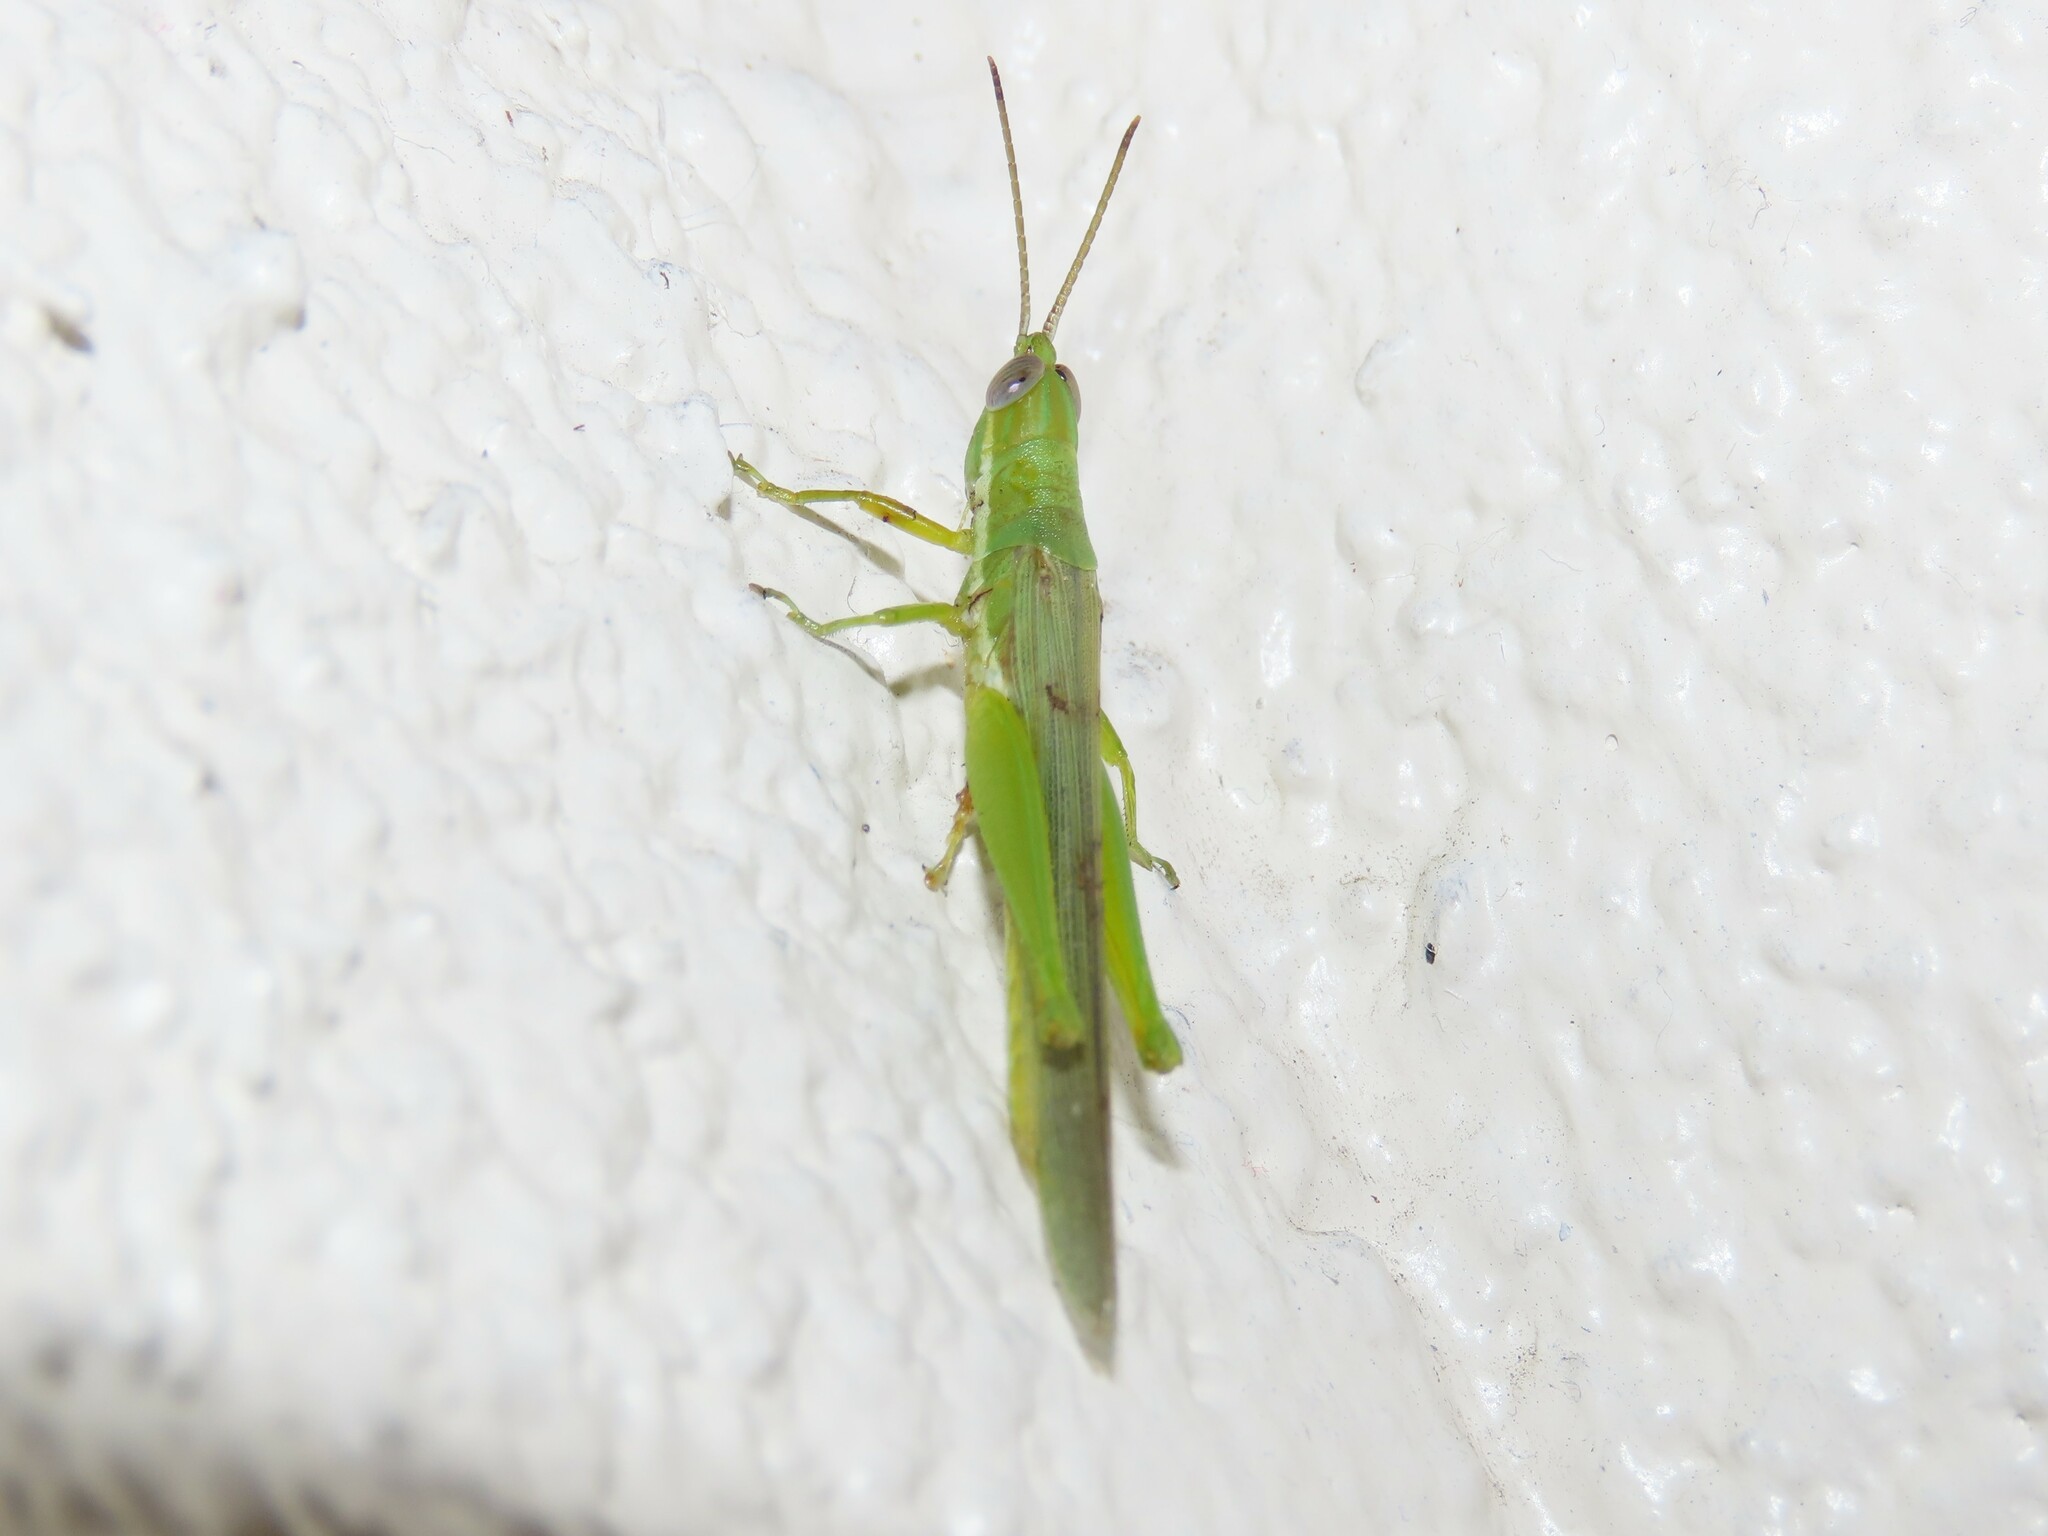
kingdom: Animalia
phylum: Arthropoda
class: Insecta
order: Orthoptera
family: Acrididae
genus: Stenacris
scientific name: Stenacris vitreipennis
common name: Glassy-winged toothpick grasshopper
